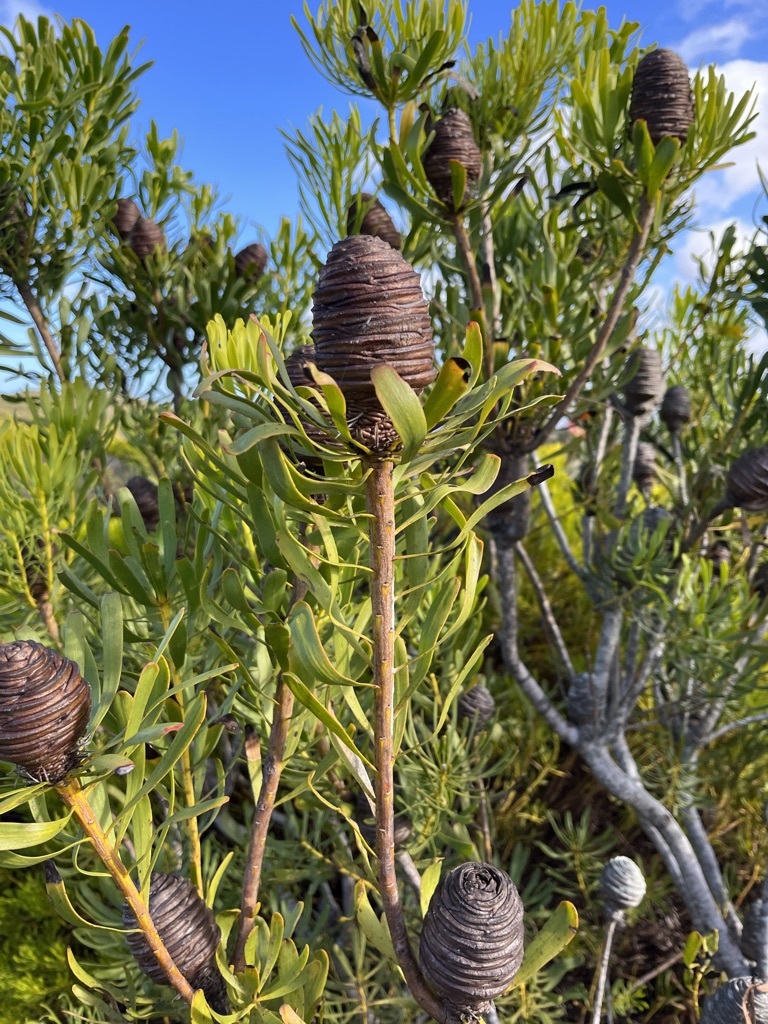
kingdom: Plantae
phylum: Tracheophyta
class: Magnoliopsida
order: Proteales
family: Proteaceae
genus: Leucadendron
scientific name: Leucadendron platyspermum
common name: Plate-seed conebush
